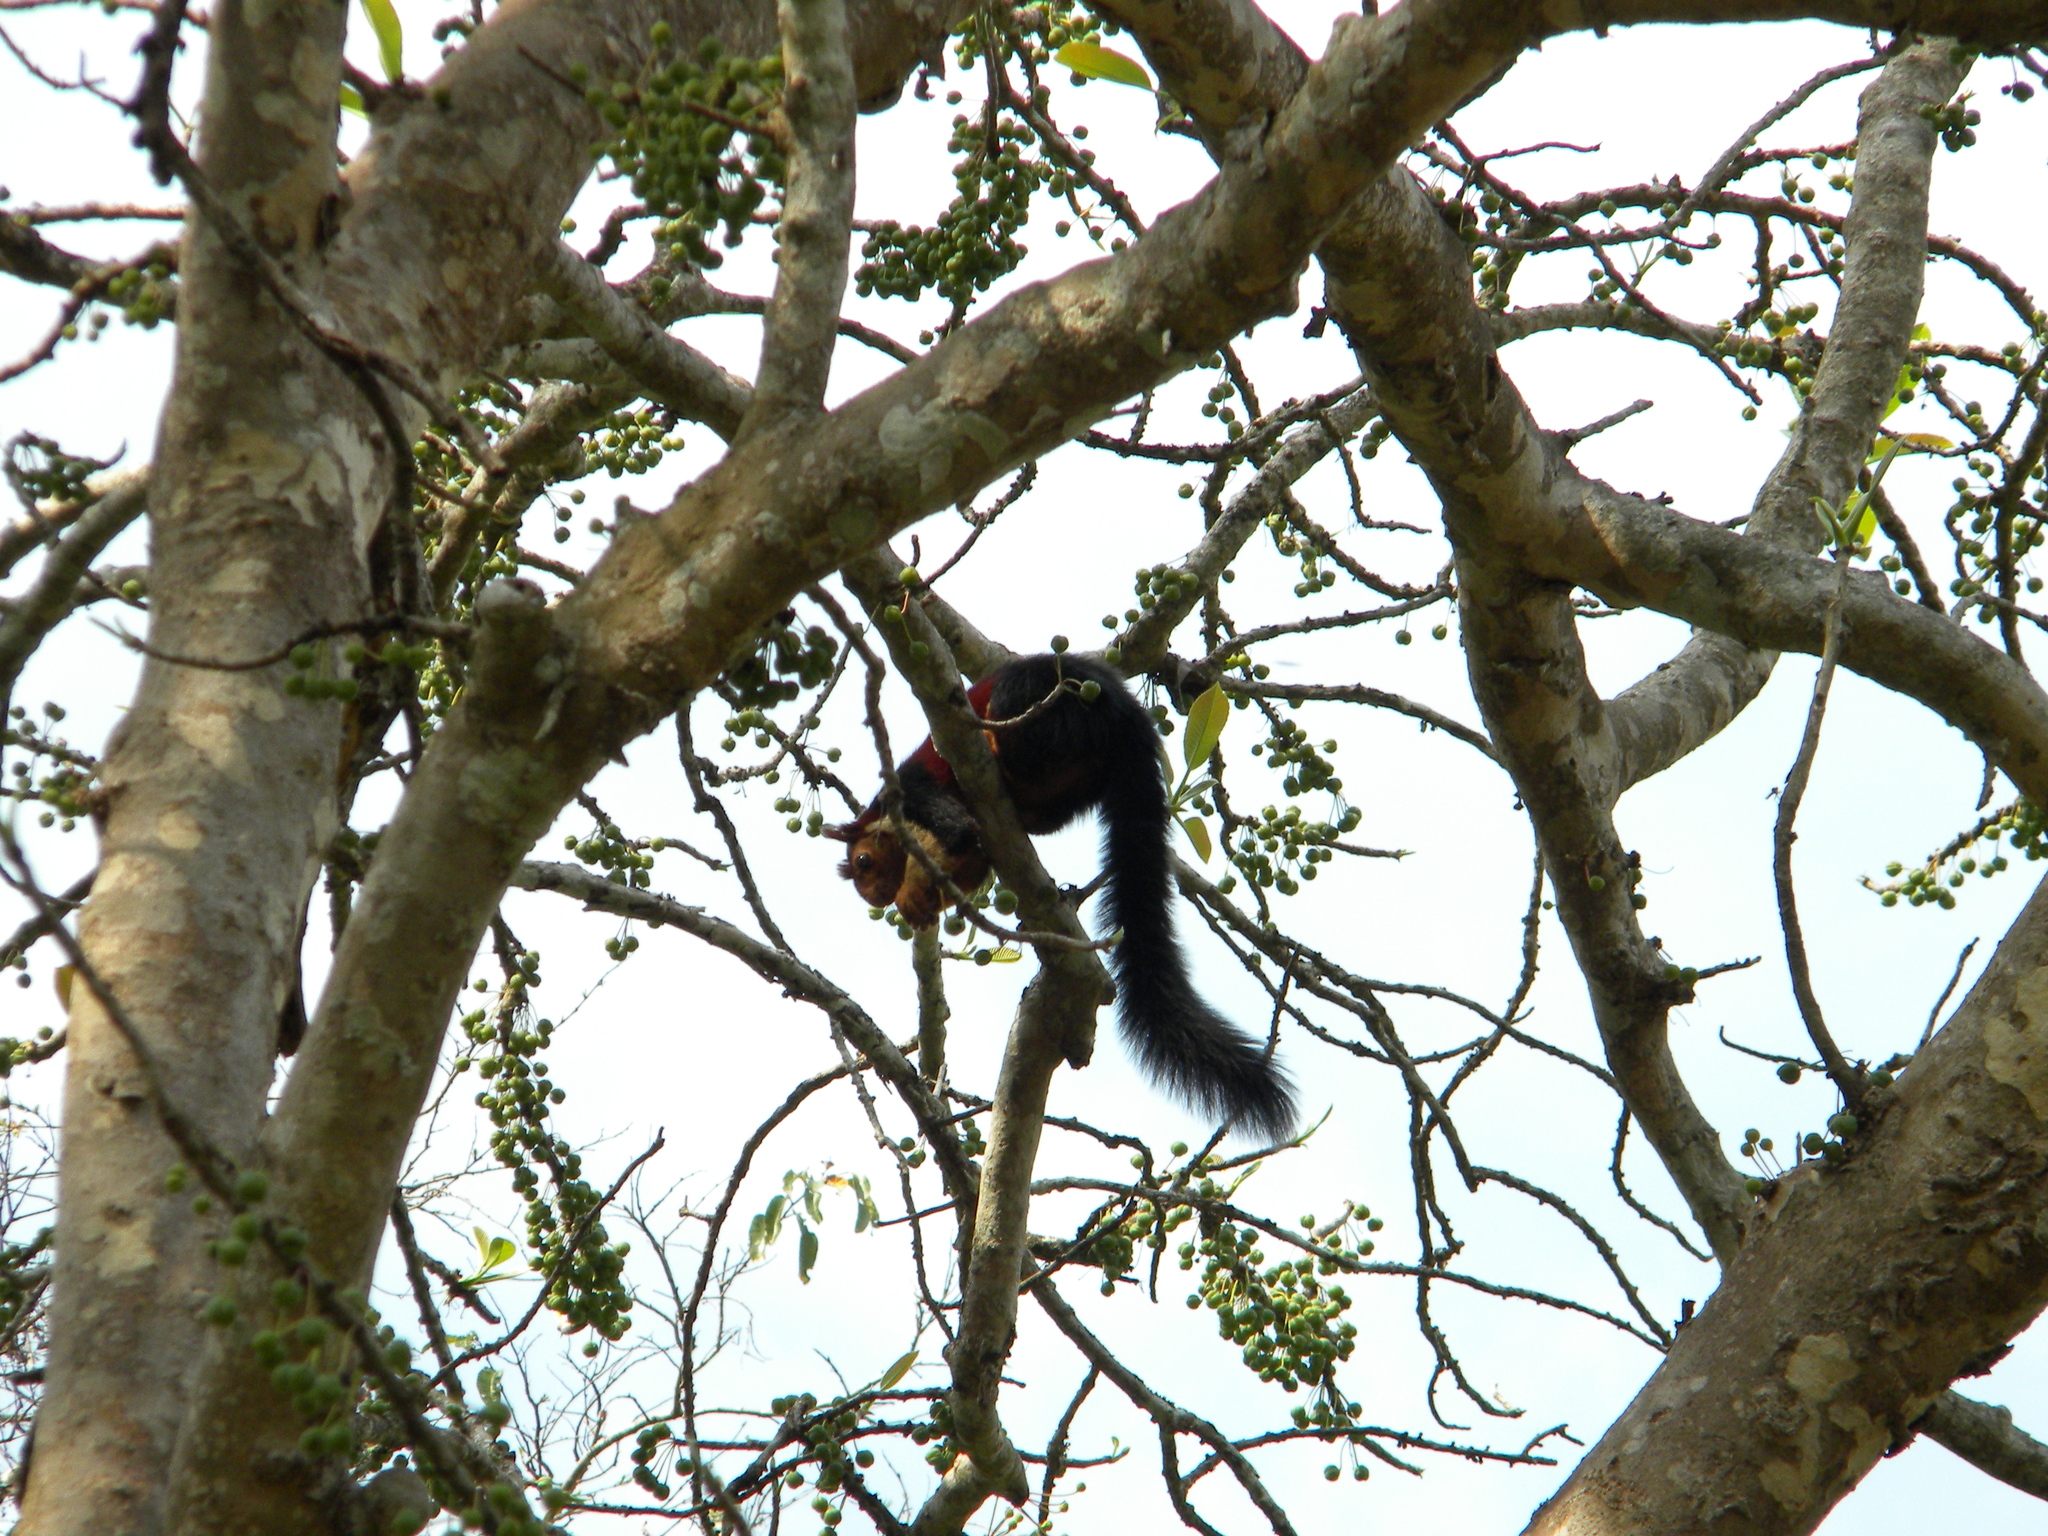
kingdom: Animalia
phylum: Chordata
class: Mammalia
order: Rodentia
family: Sciuridae
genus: Ratufa
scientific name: Ratufa indica
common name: Indian giant squirrel
